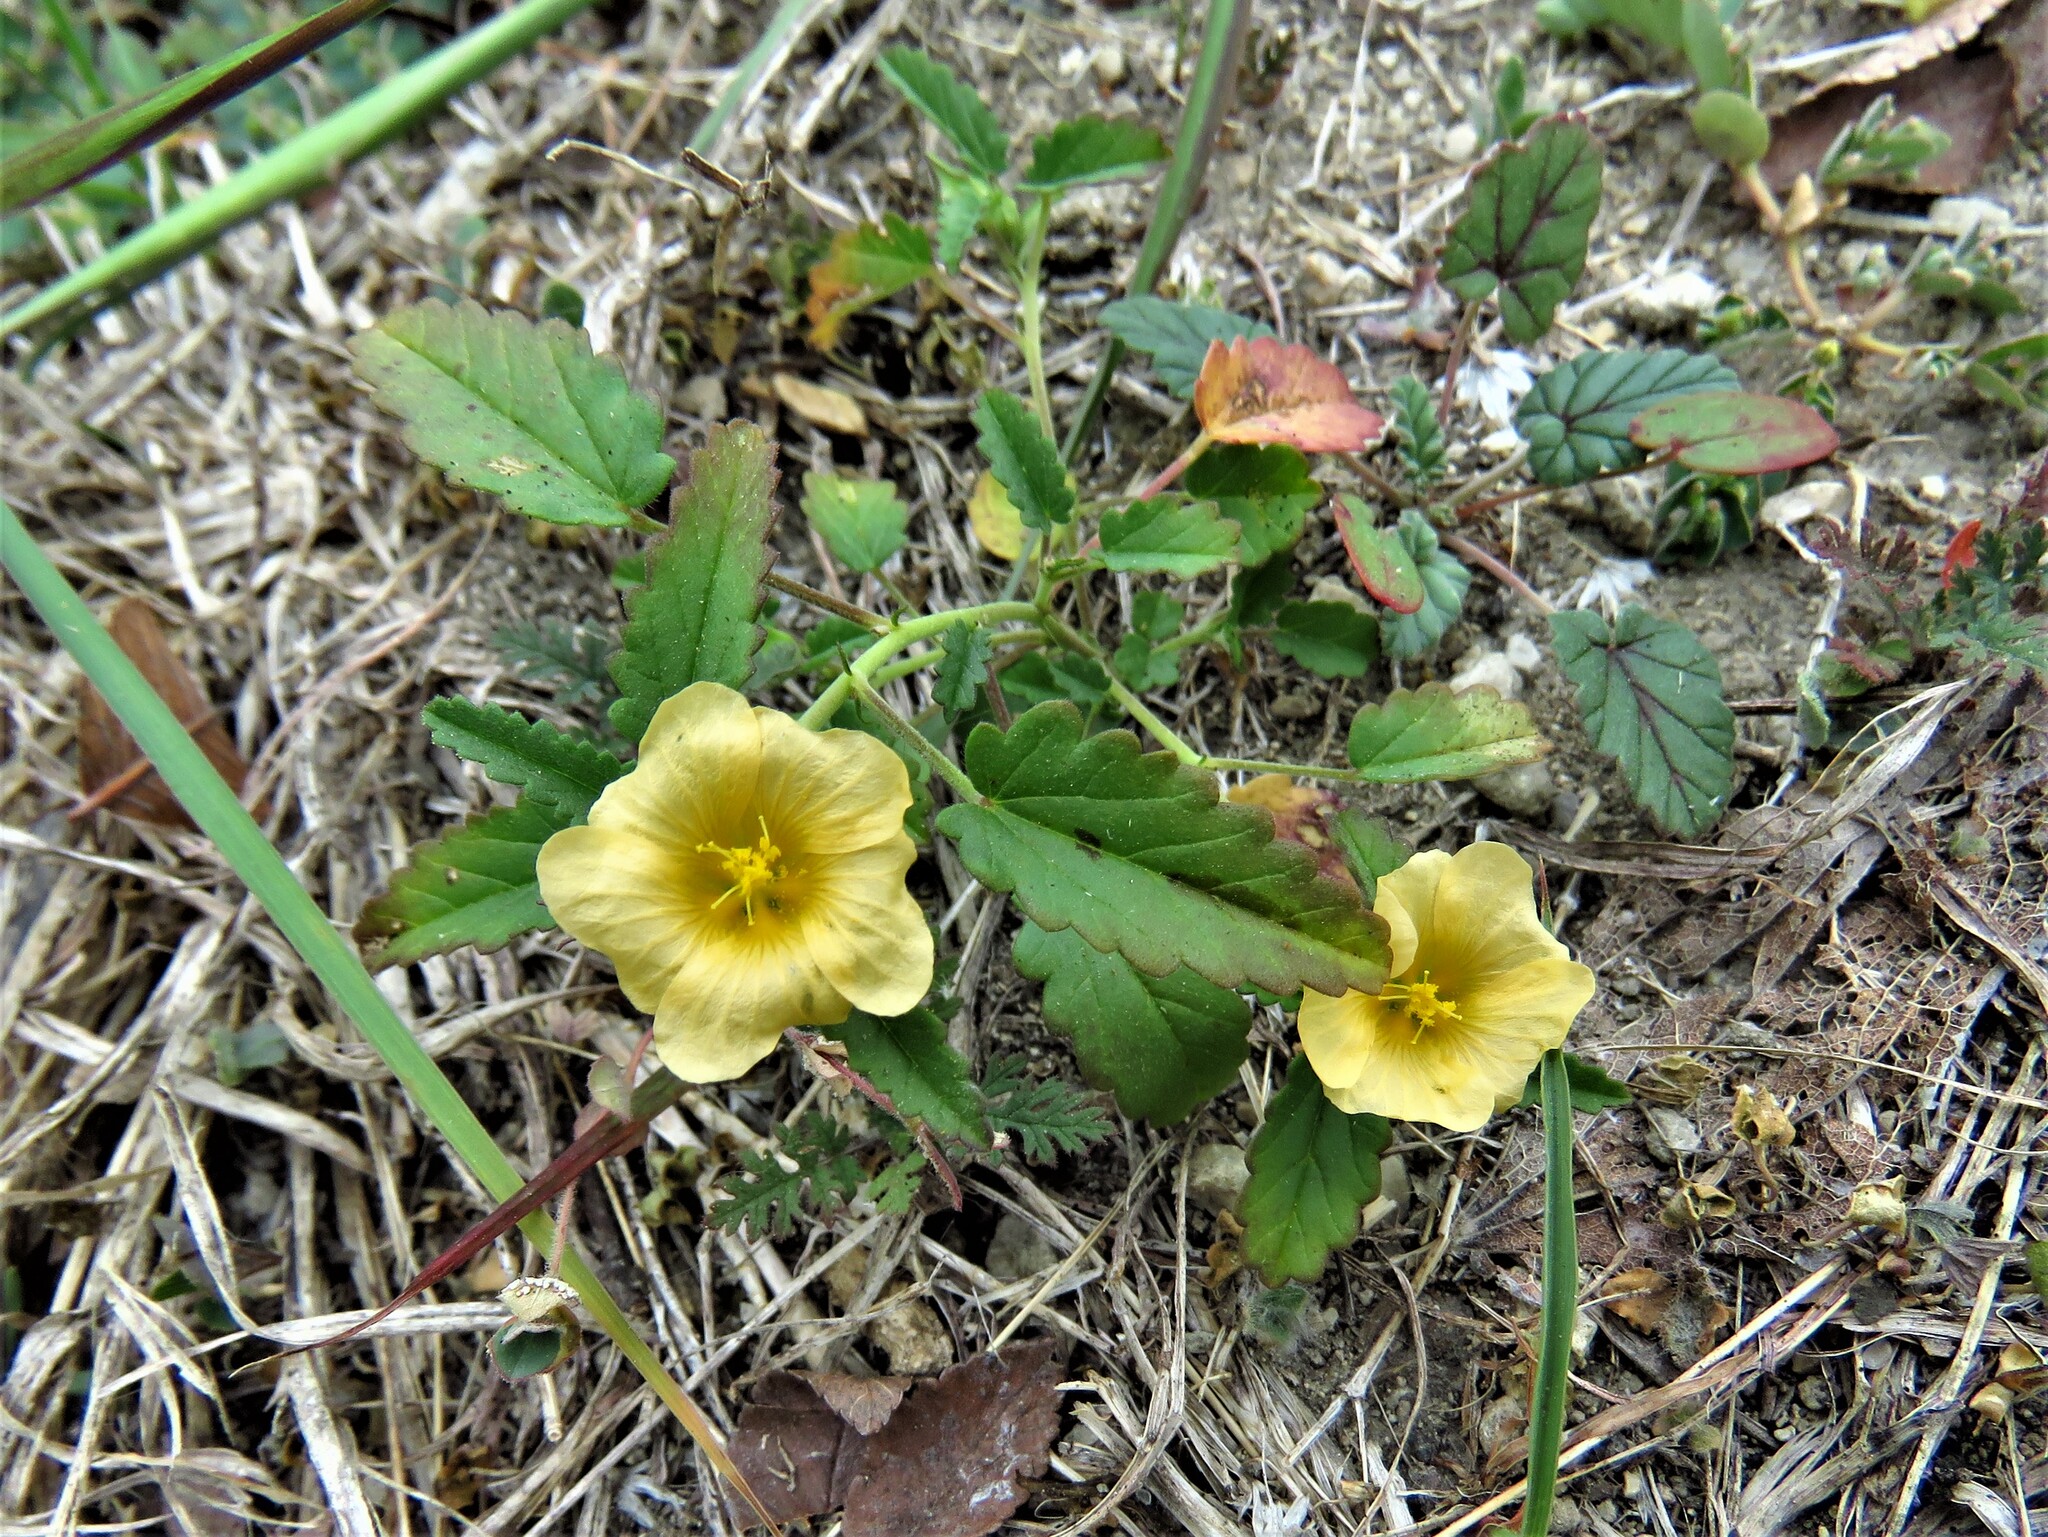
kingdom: Plantae
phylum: Tracheophyta
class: Magnoliopsida
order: Malvales
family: Malvaceae
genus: Sida
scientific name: Sida abutilifolia
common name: Spreading fanpetals
